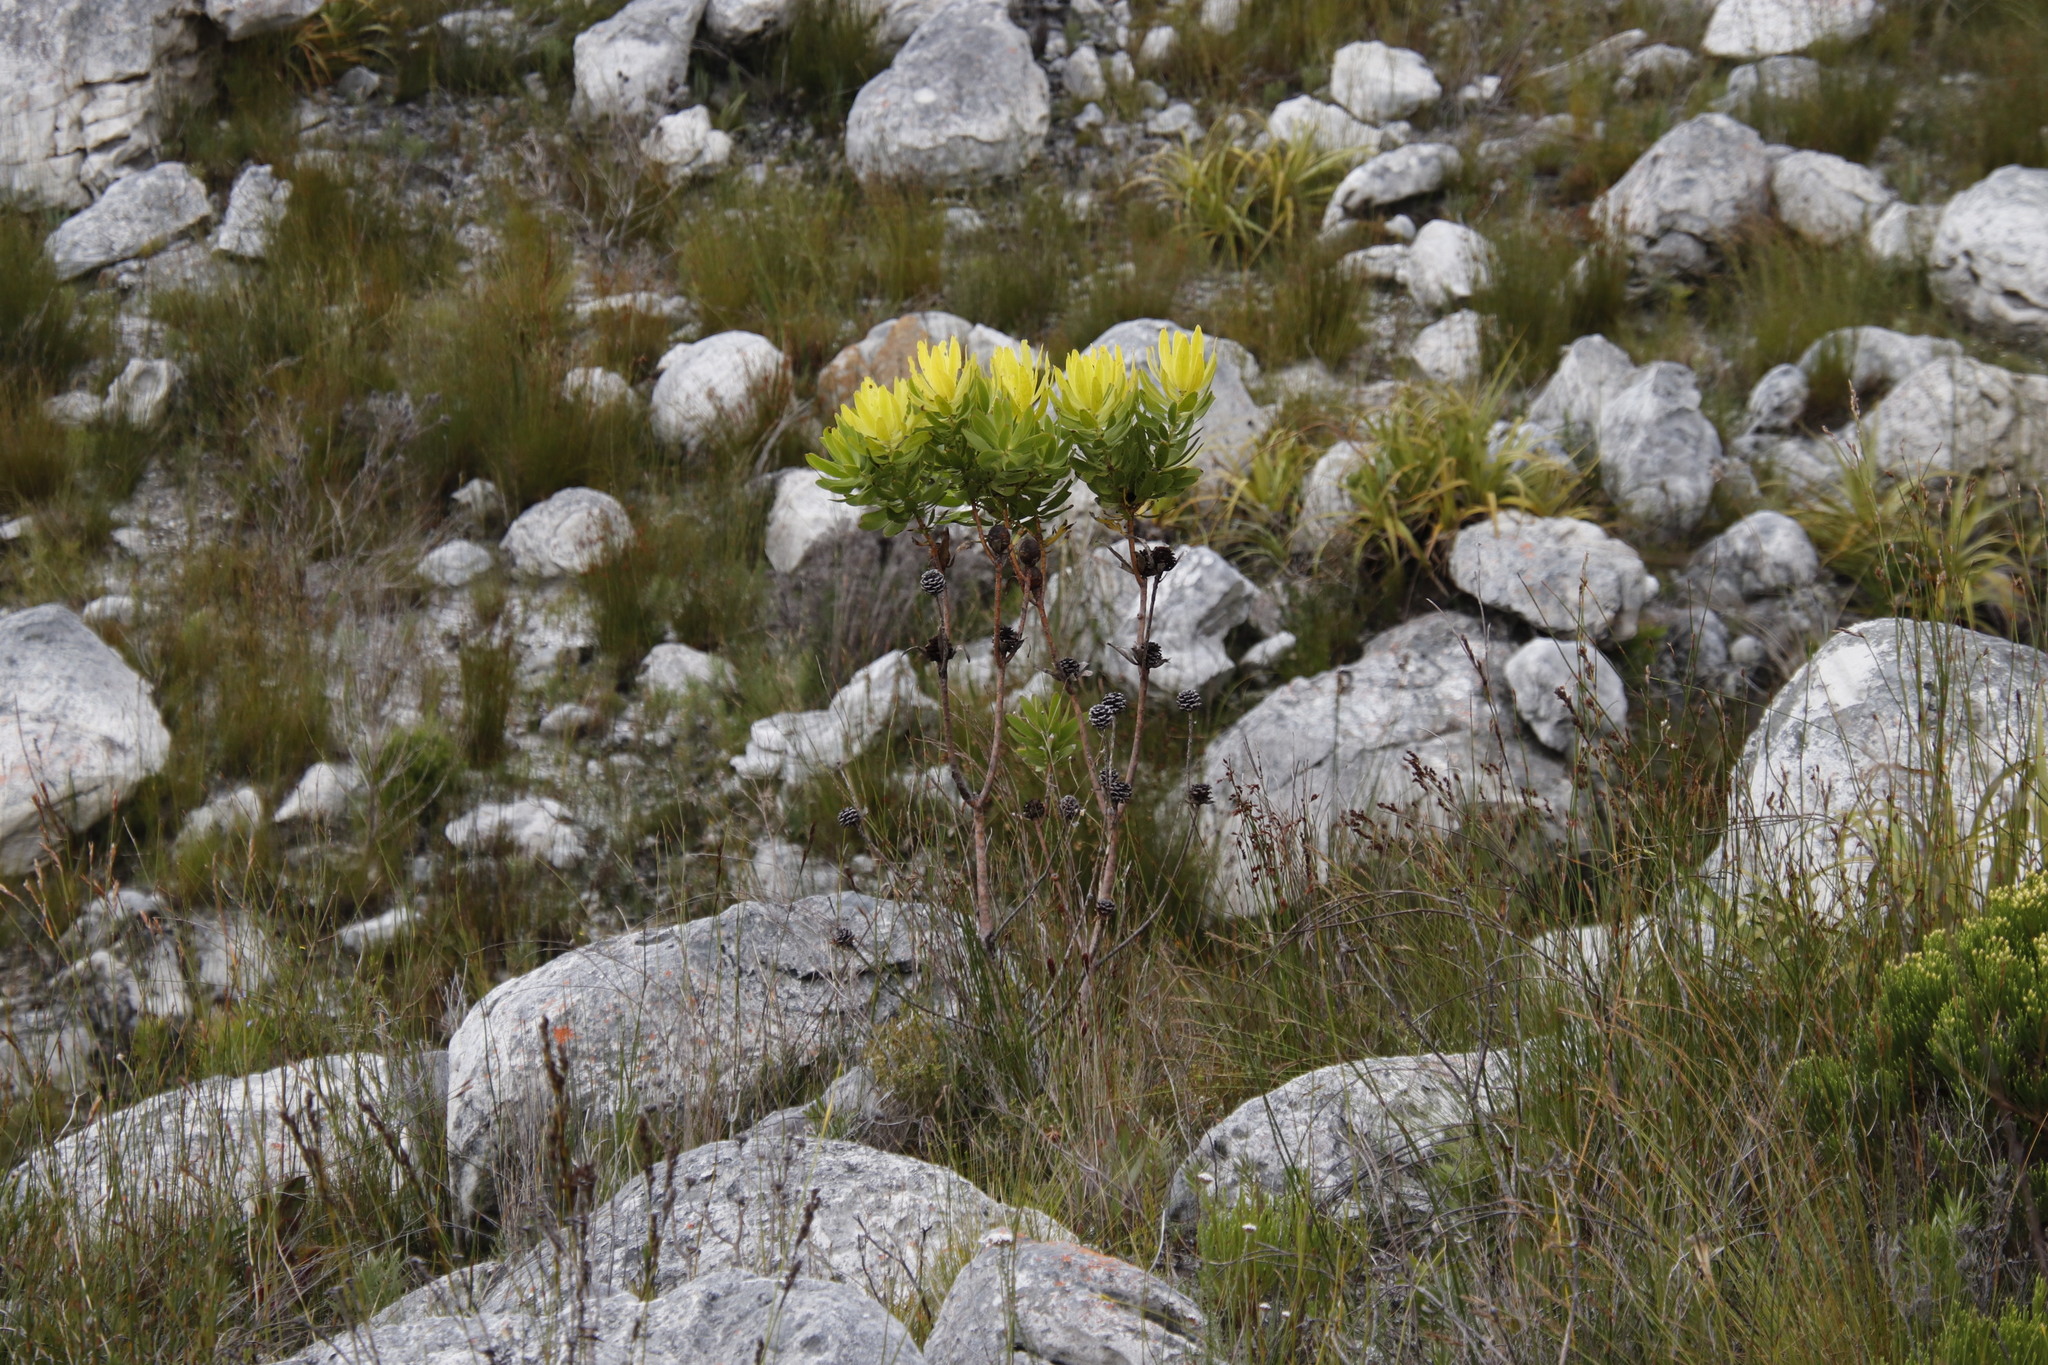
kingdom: Plantae
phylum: Tracheophyta
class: Magnoliopsida
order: Proteales
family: Proteaceae
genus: Leucadendron
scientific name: Leucadendron microcephalum
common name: Oilbract conebush
